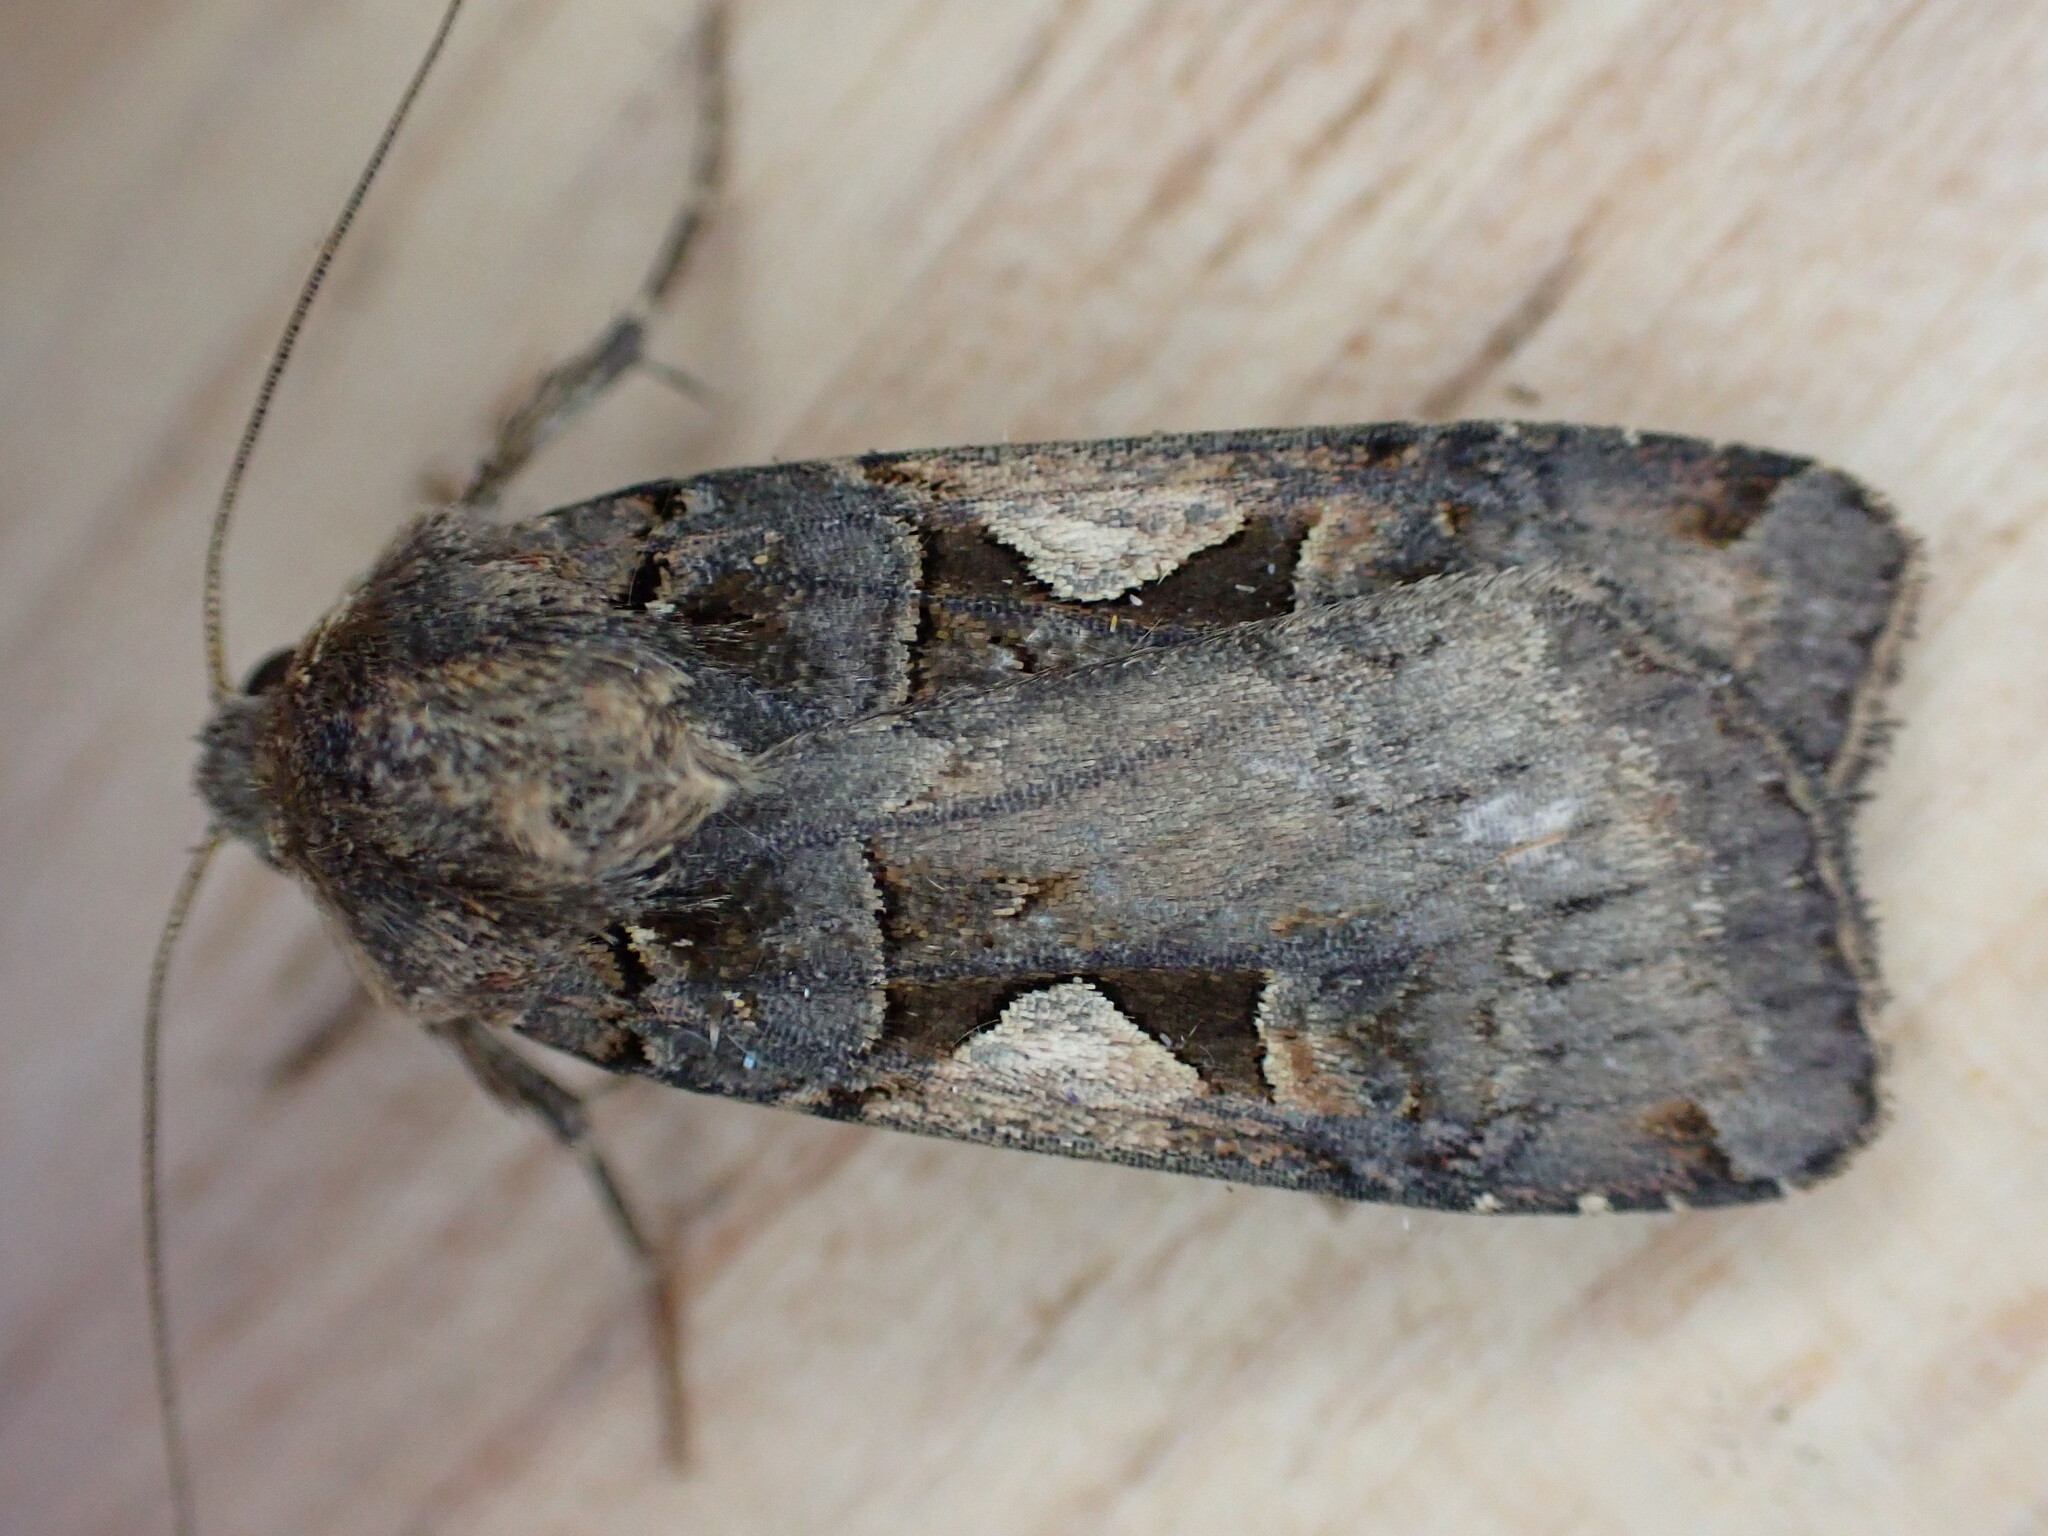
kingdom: Animalia
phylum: Arthropoda
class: Insecta
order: Lepidoptera
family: Noctuidae
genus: Xestia
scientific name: Xestia c-nigrum
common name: Setaceous hebrew character
